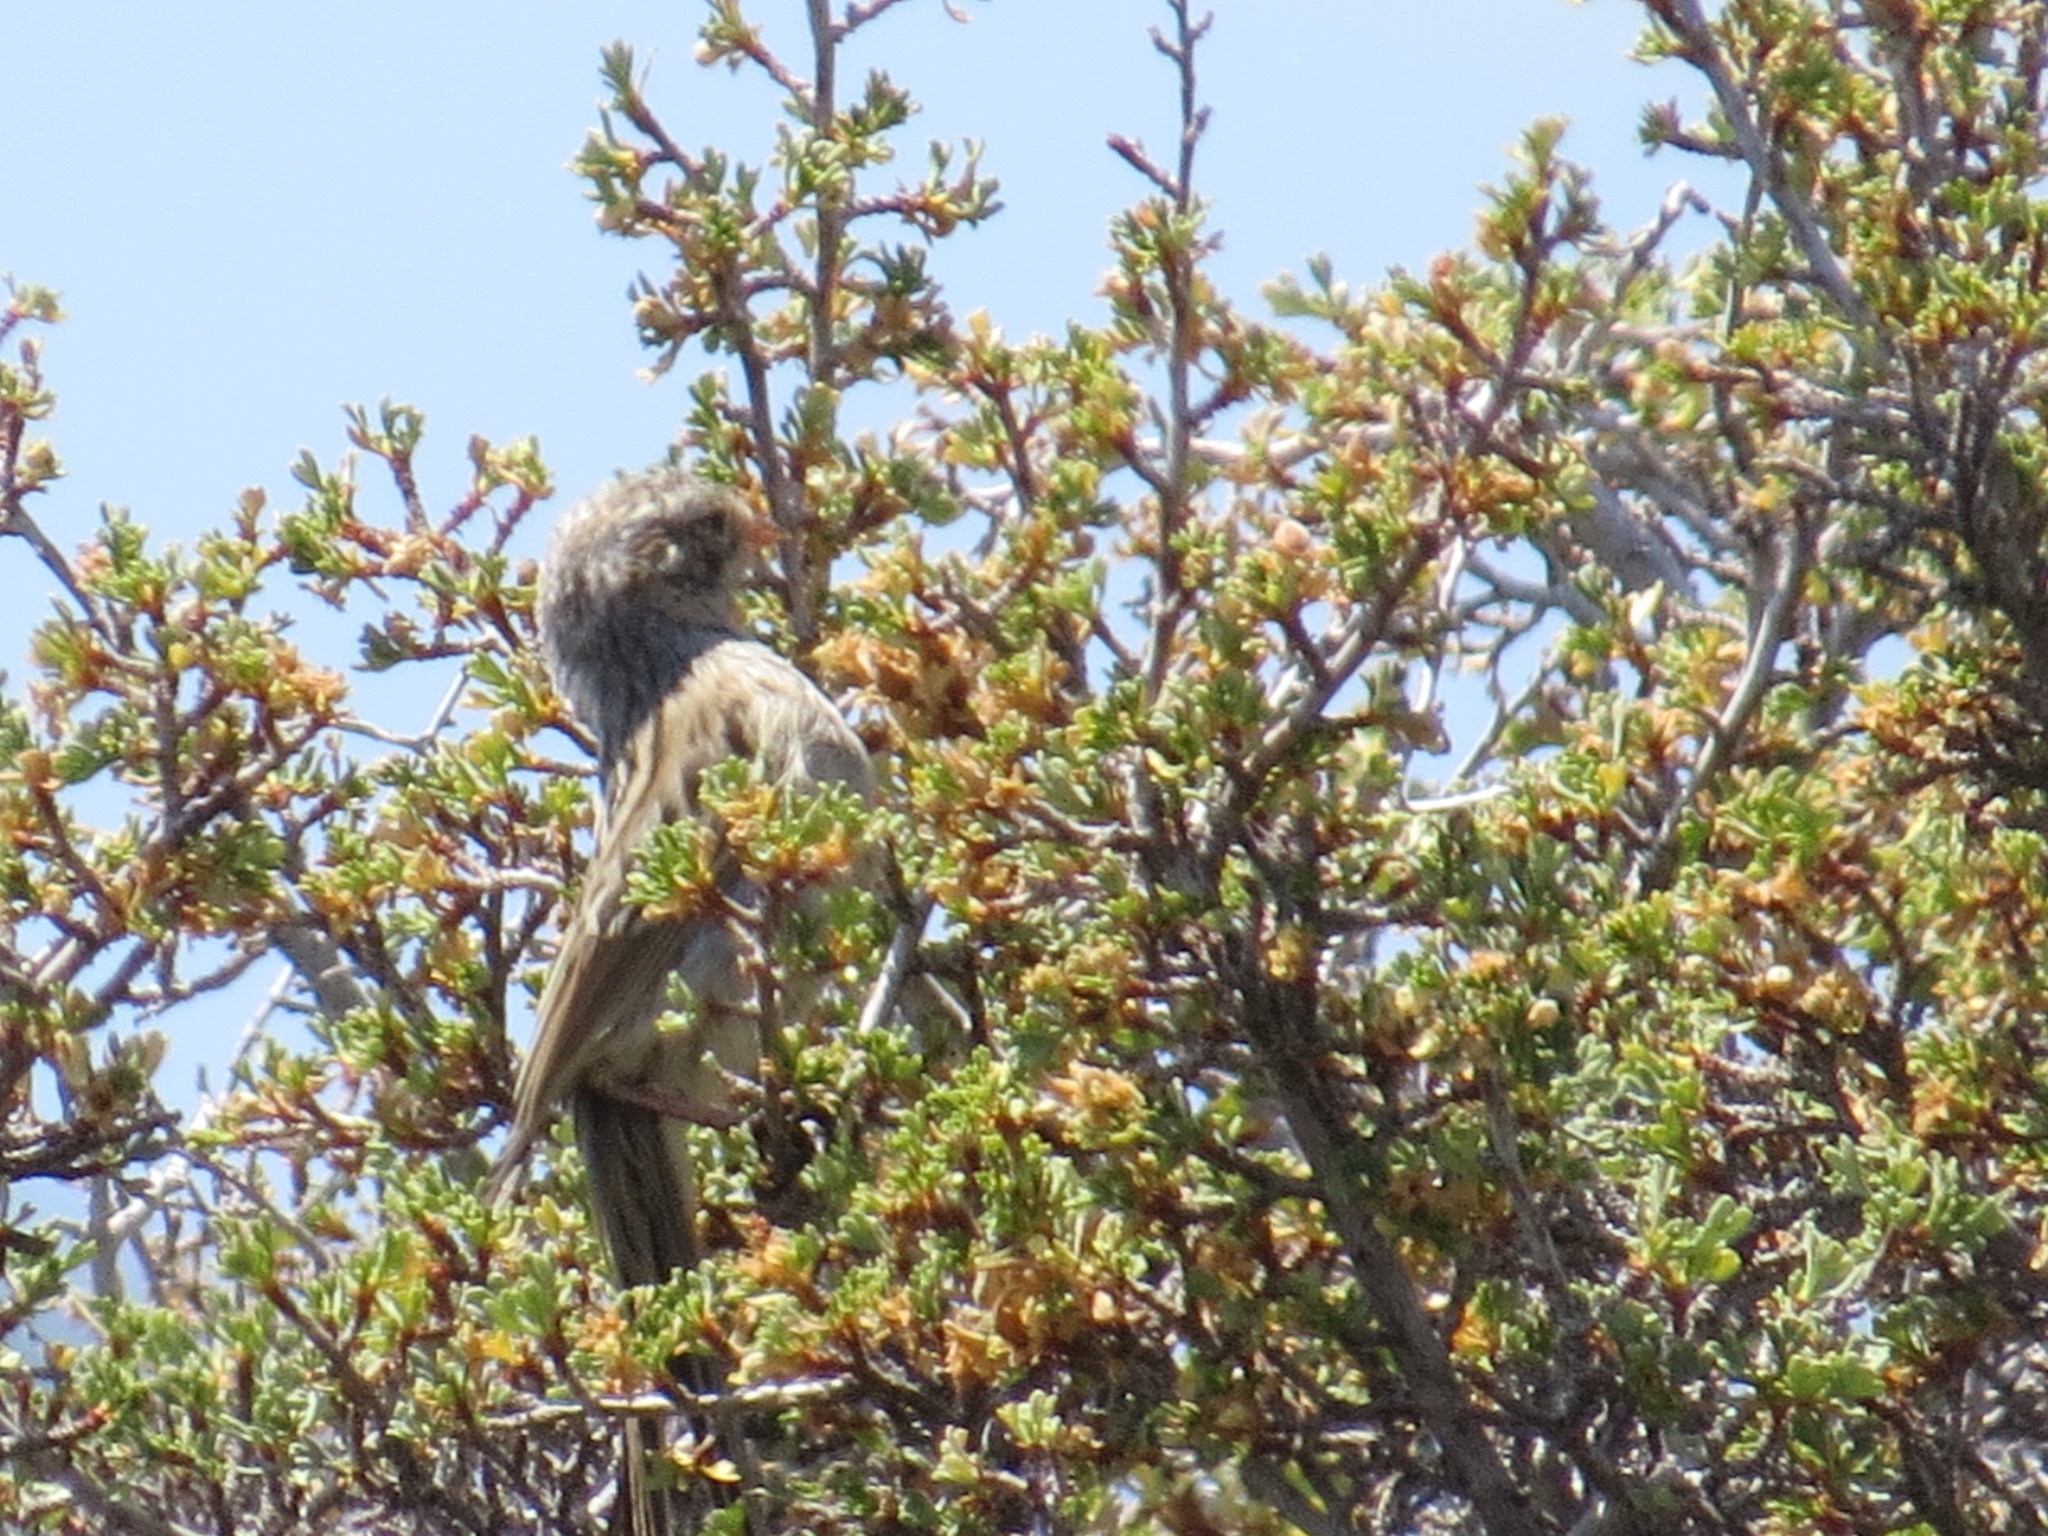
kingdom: Animalia
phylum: Chordata
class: Aves
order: Passeriformes
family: Passerellidae
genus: Spizella
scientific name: Spizella breweri
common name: Brewer's sparrow
